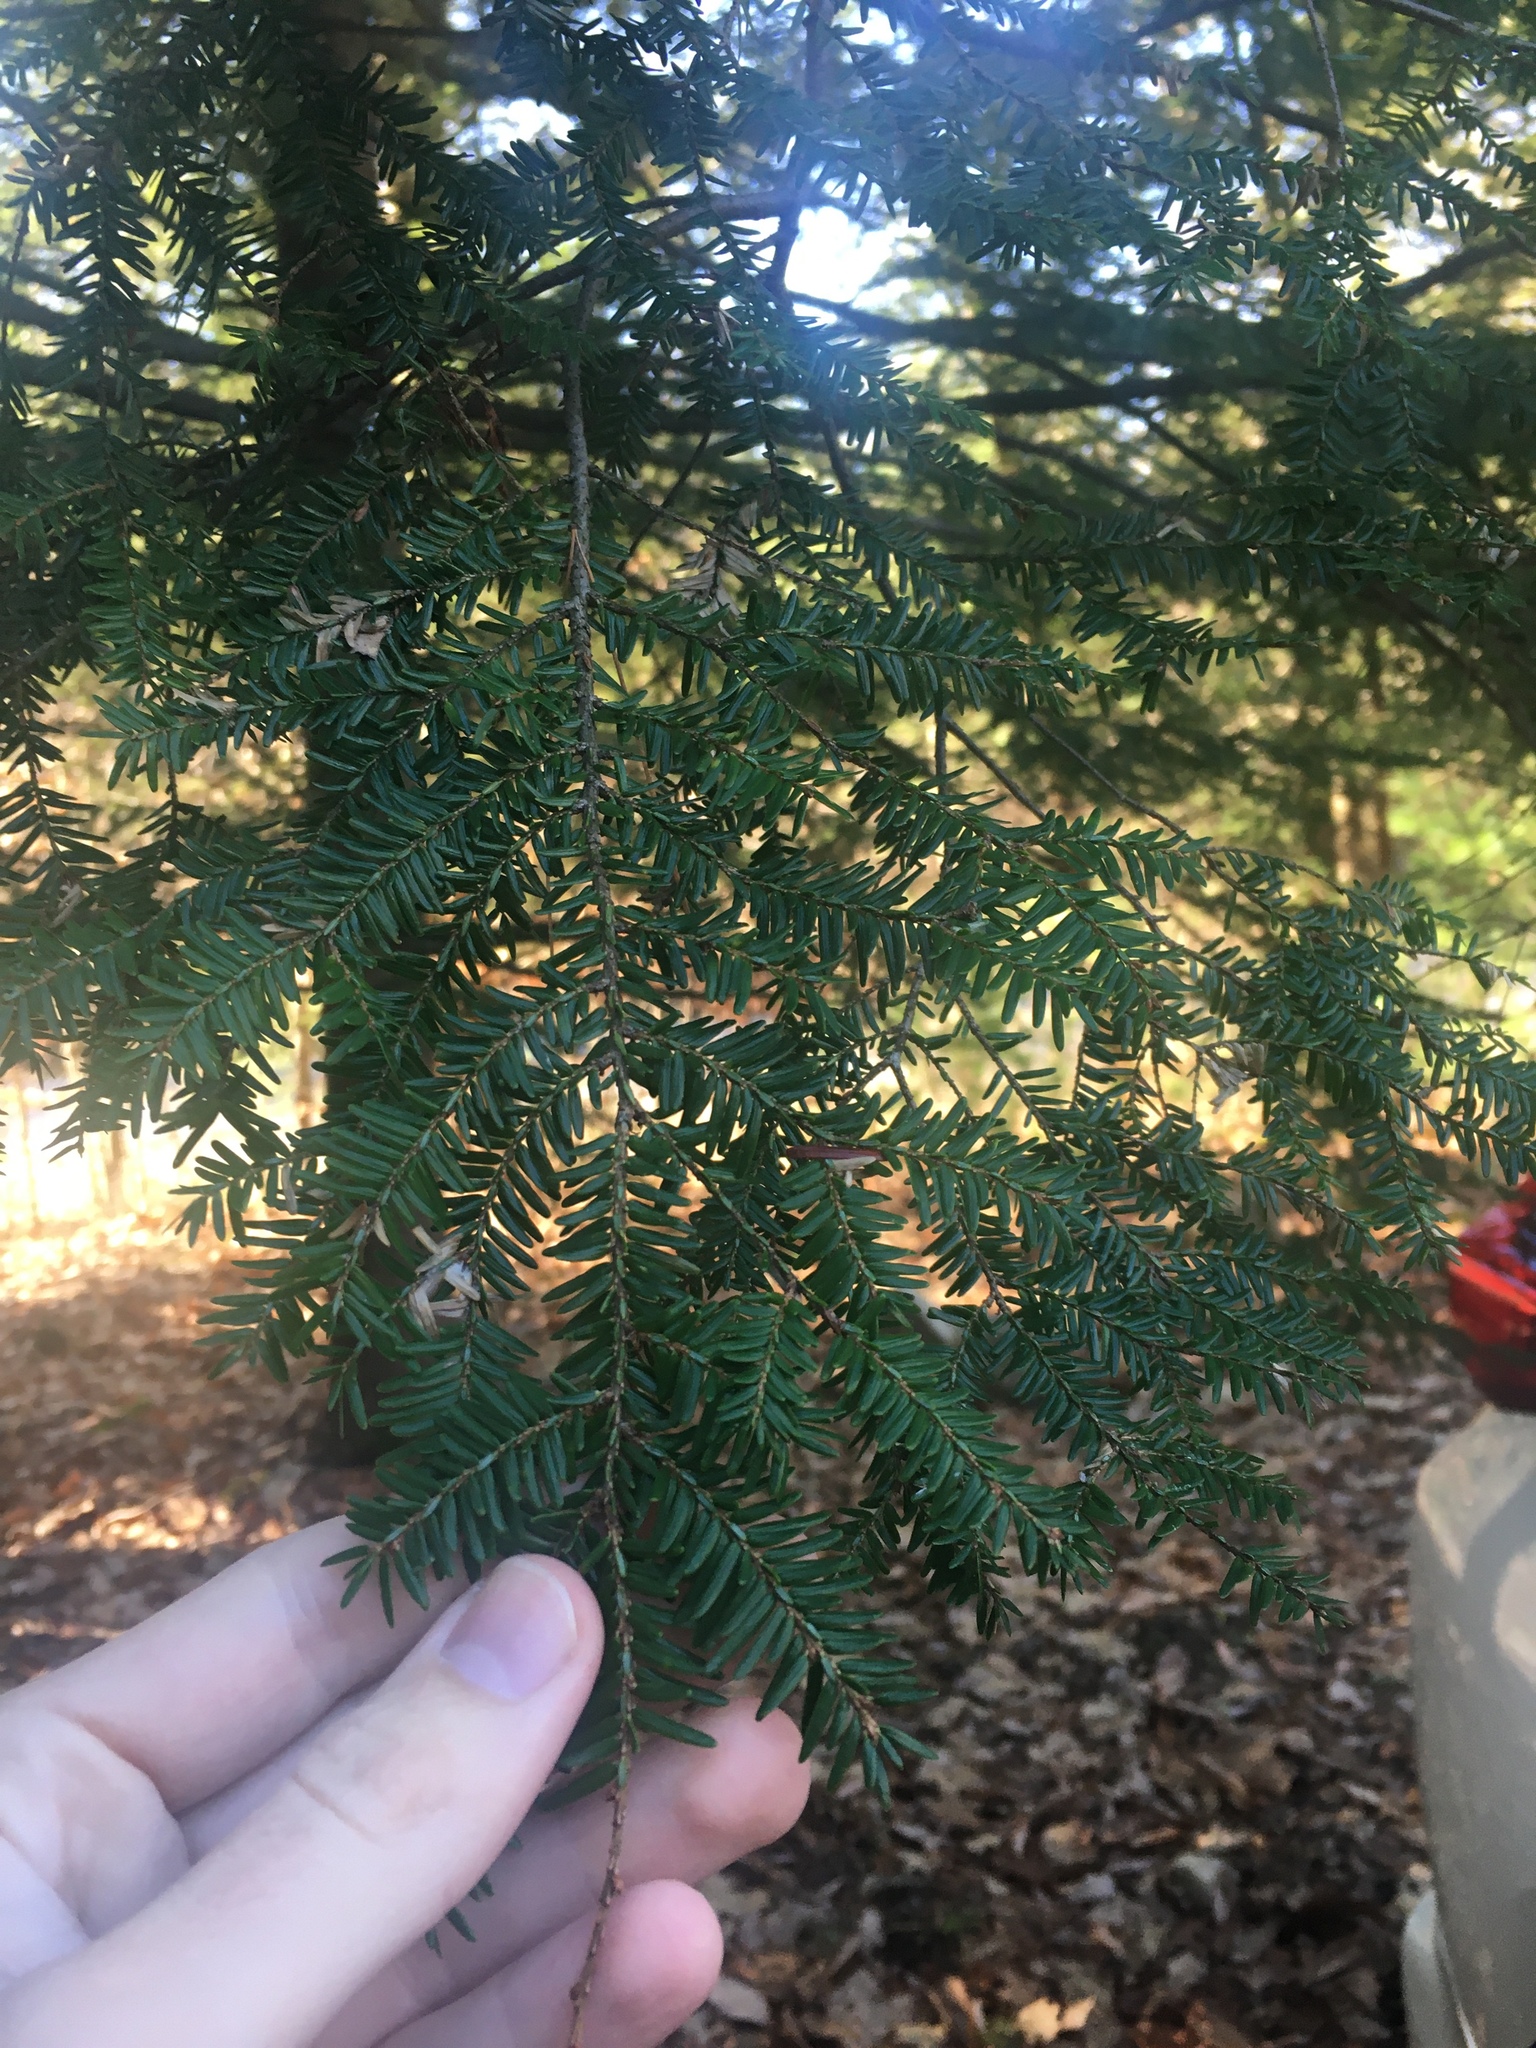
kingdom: Plantae
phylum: Tracheophyta
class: Pinopsida
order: Pinales
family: Pinaceae
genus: Tsuga
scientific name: Tsuga canadensis
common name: Eastern hemlock
